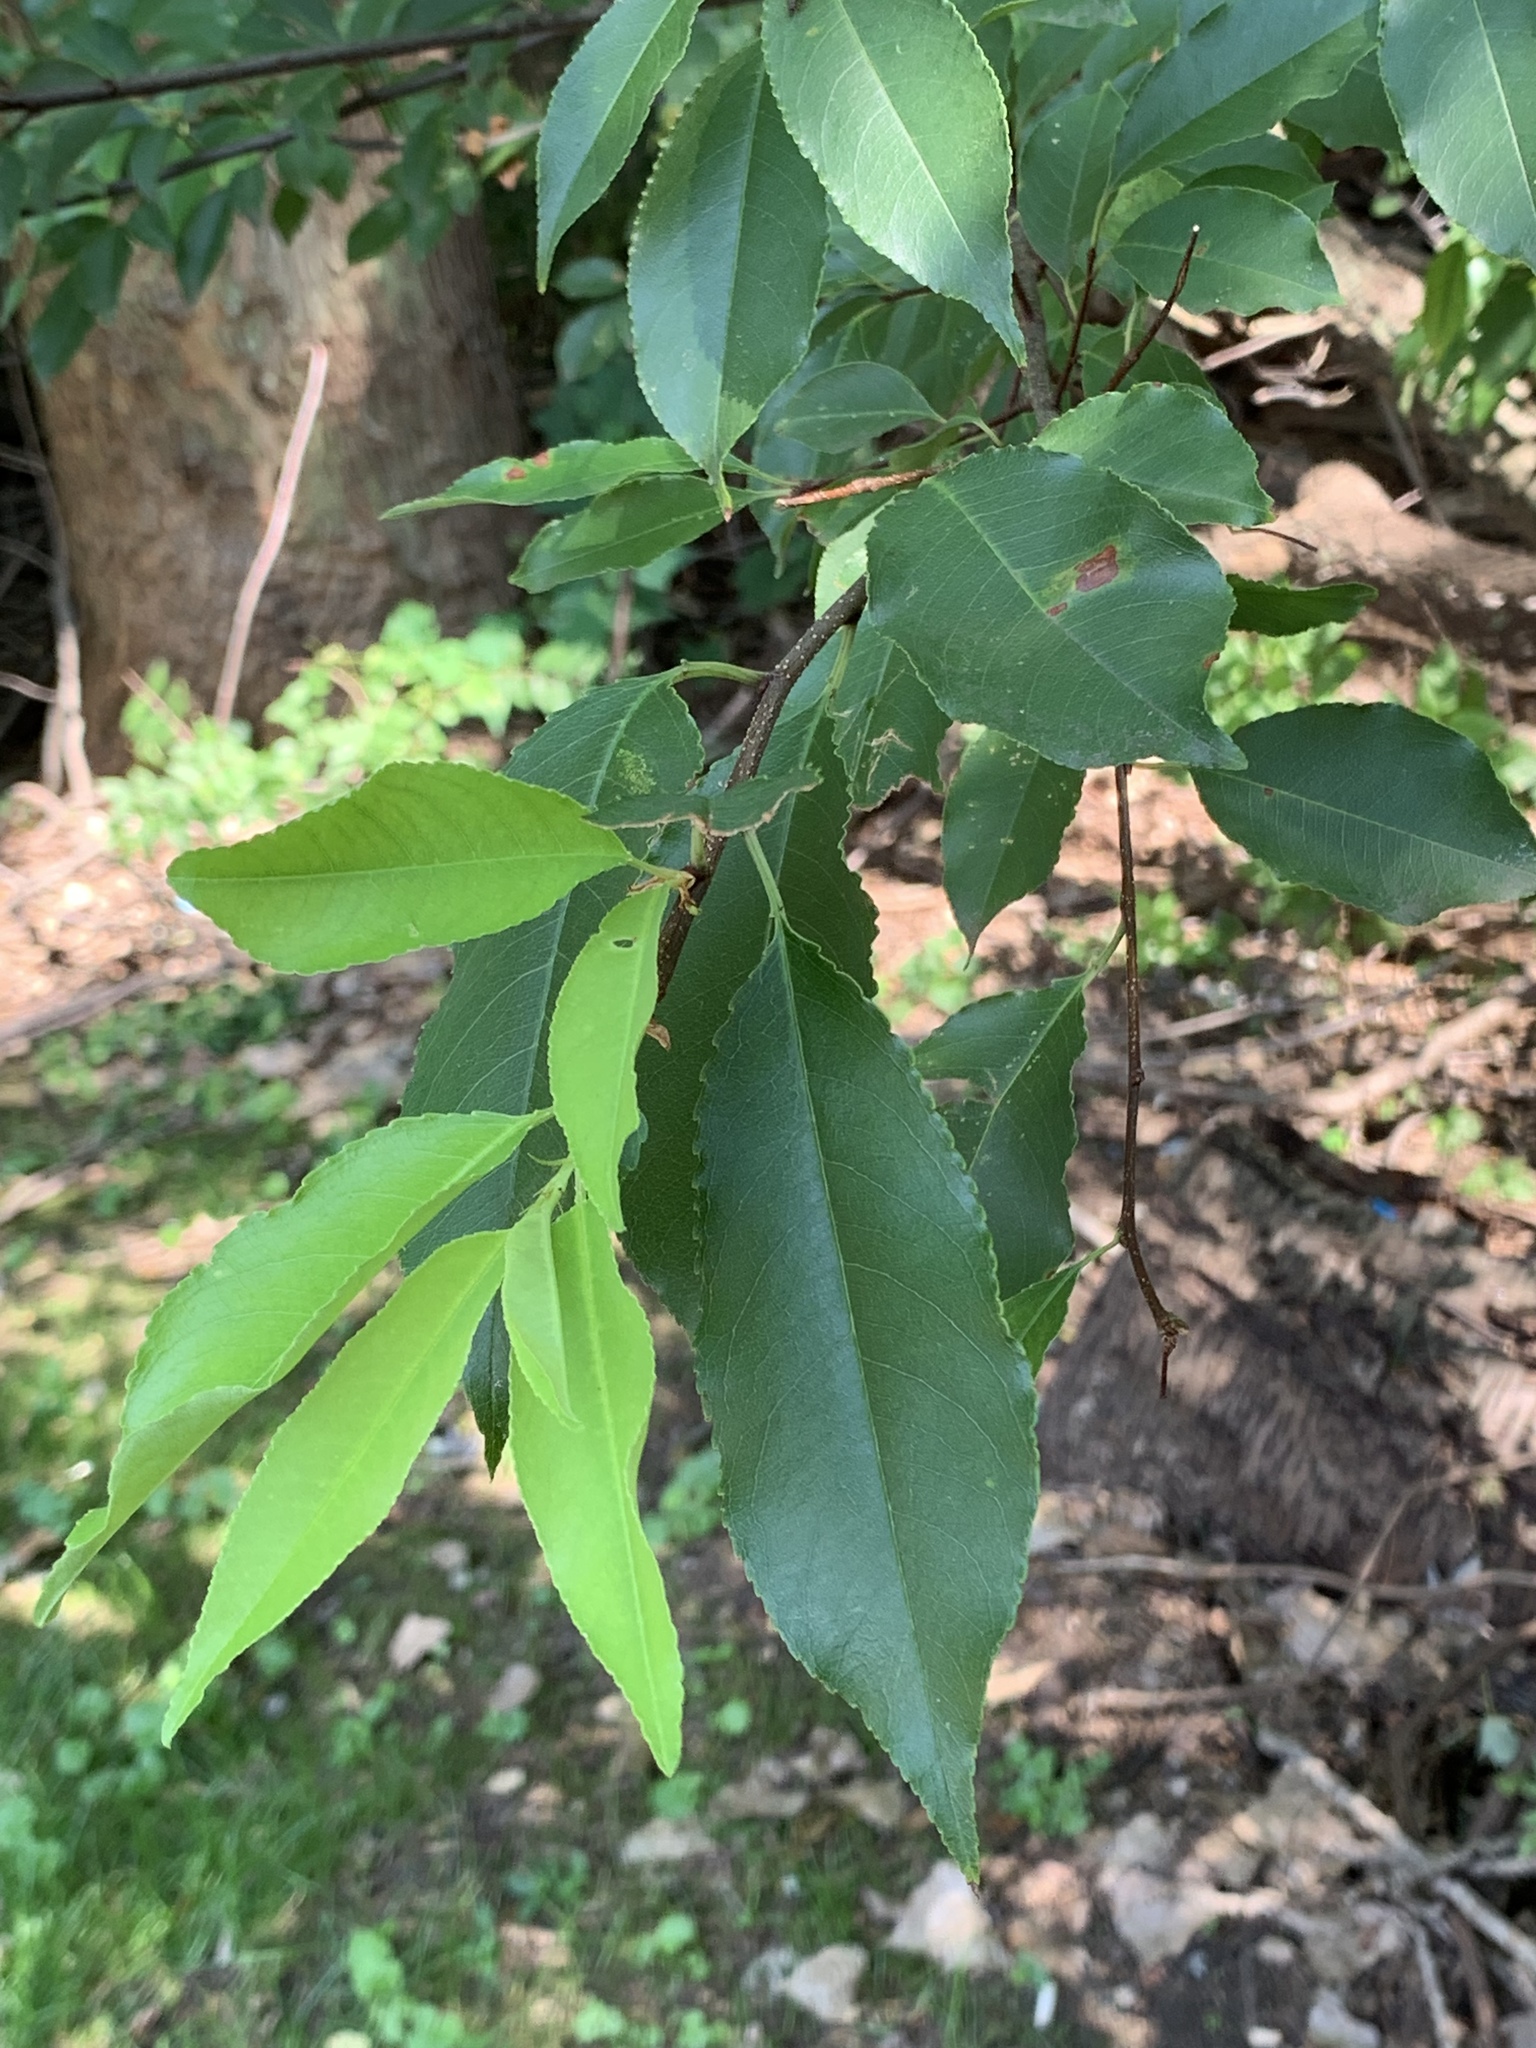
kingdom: Plantae
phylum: Tracheophyta
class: Magnoliopsida
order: Rosales
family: Rosaceae
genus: Prunus
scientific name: Prunus serotina
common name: Black cherry
